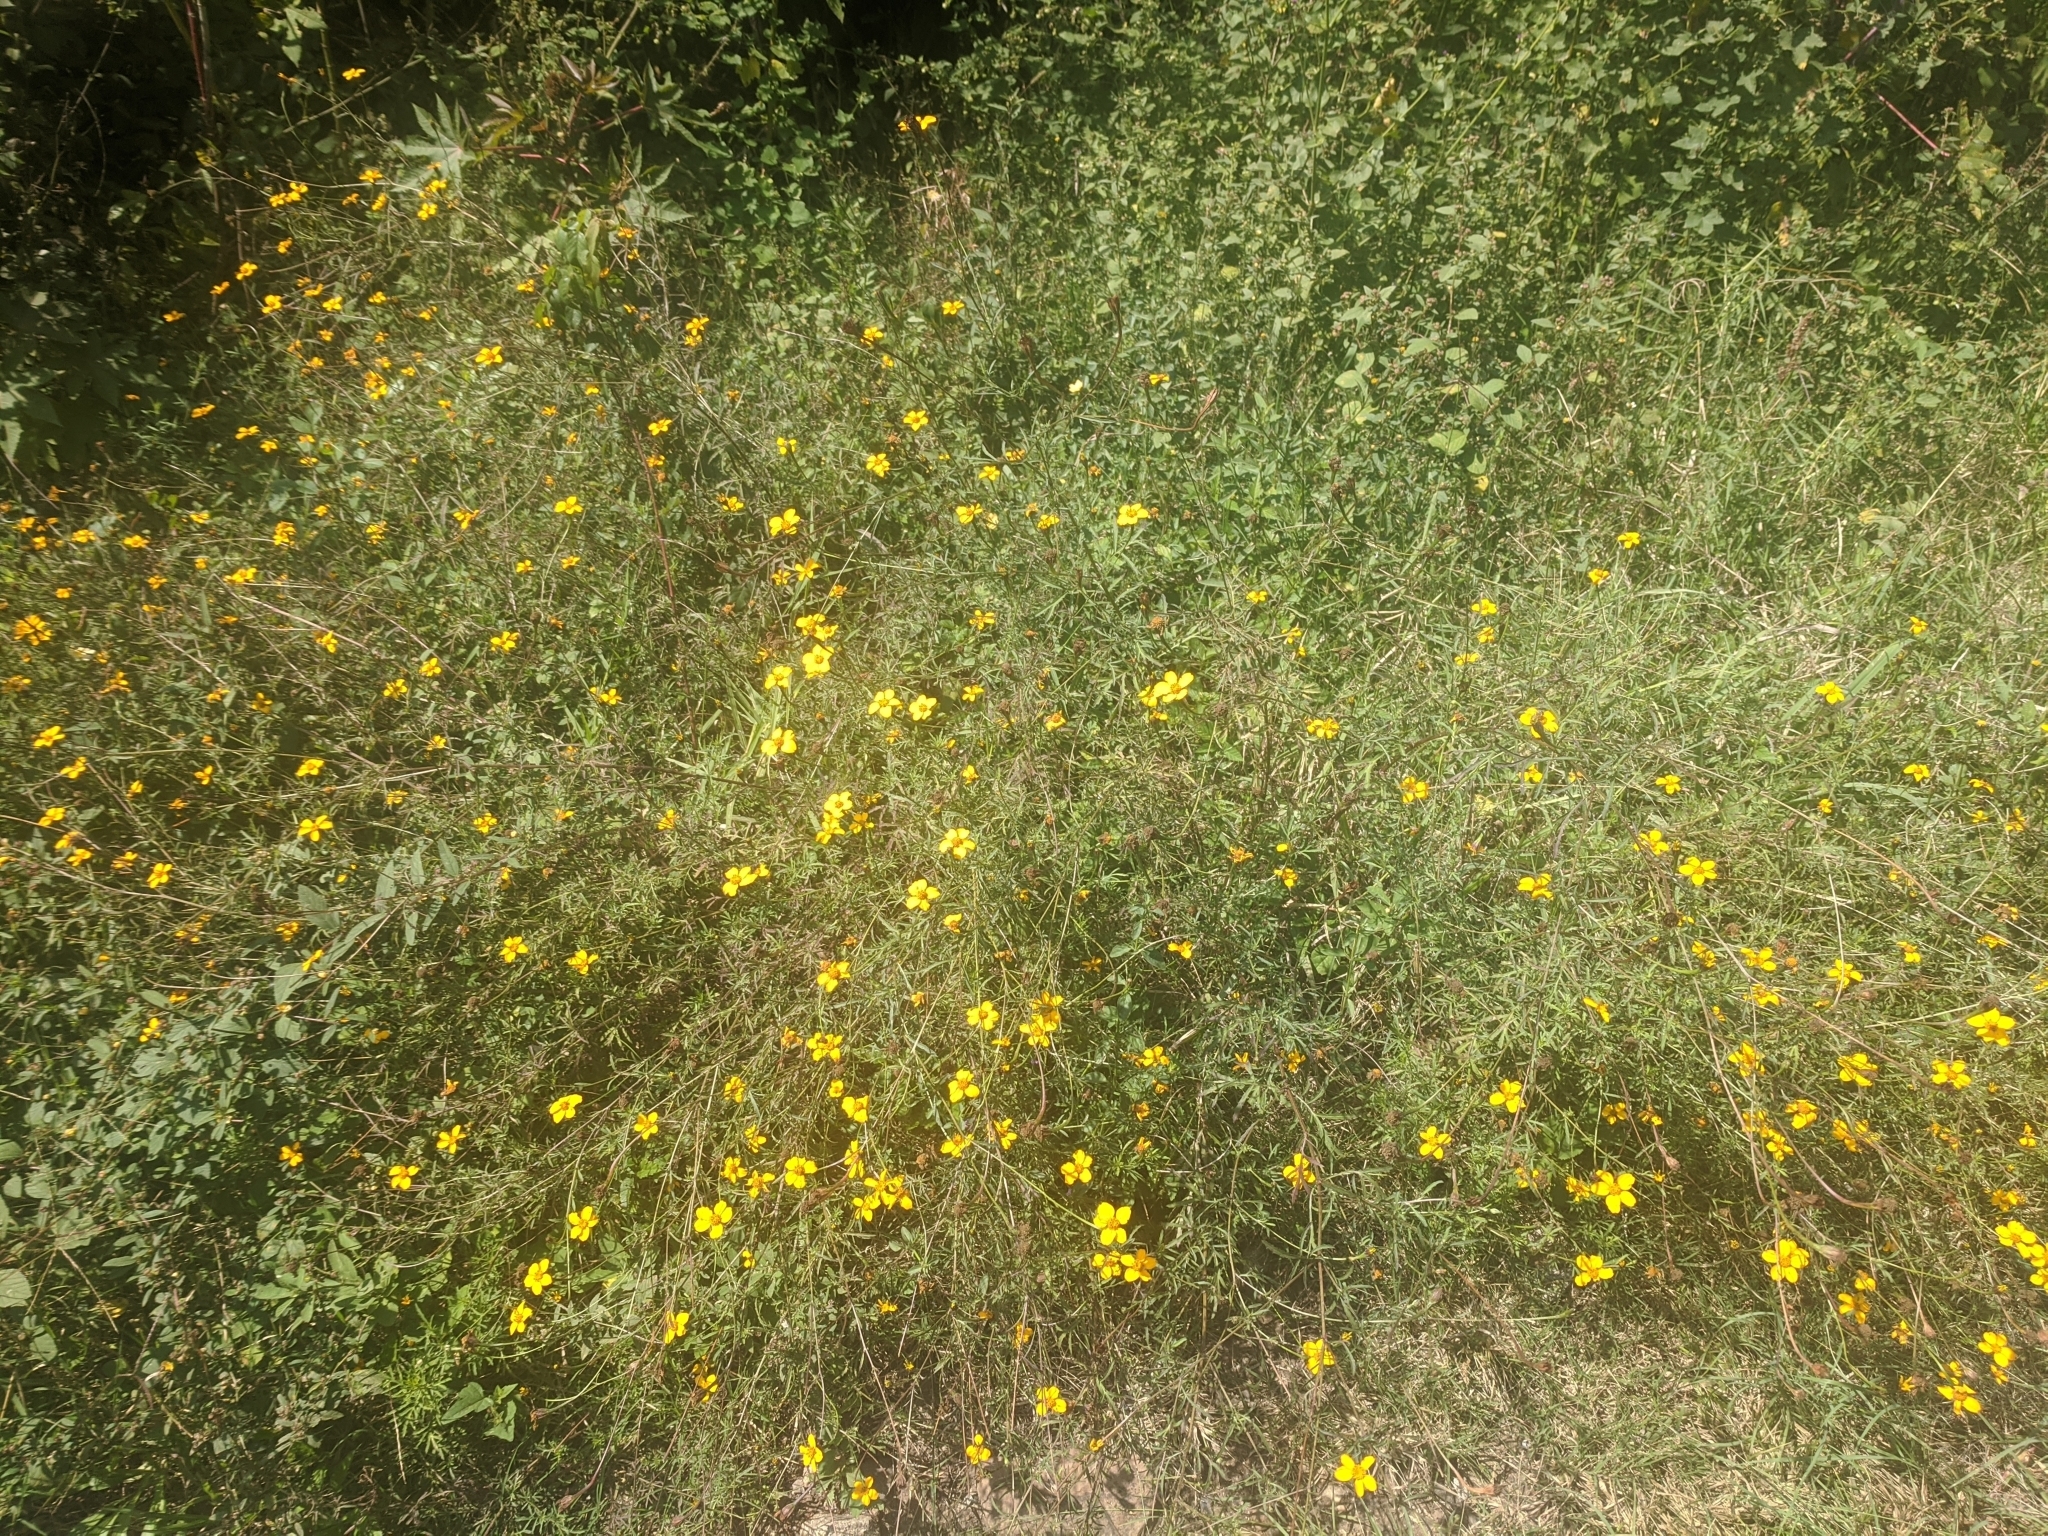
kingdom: Plantae
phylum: Tracheophyta
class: Magnoliopsida
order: Asterales
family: Asteraceae
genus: Dyssodia
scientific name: Dyssodia tagetiflora
